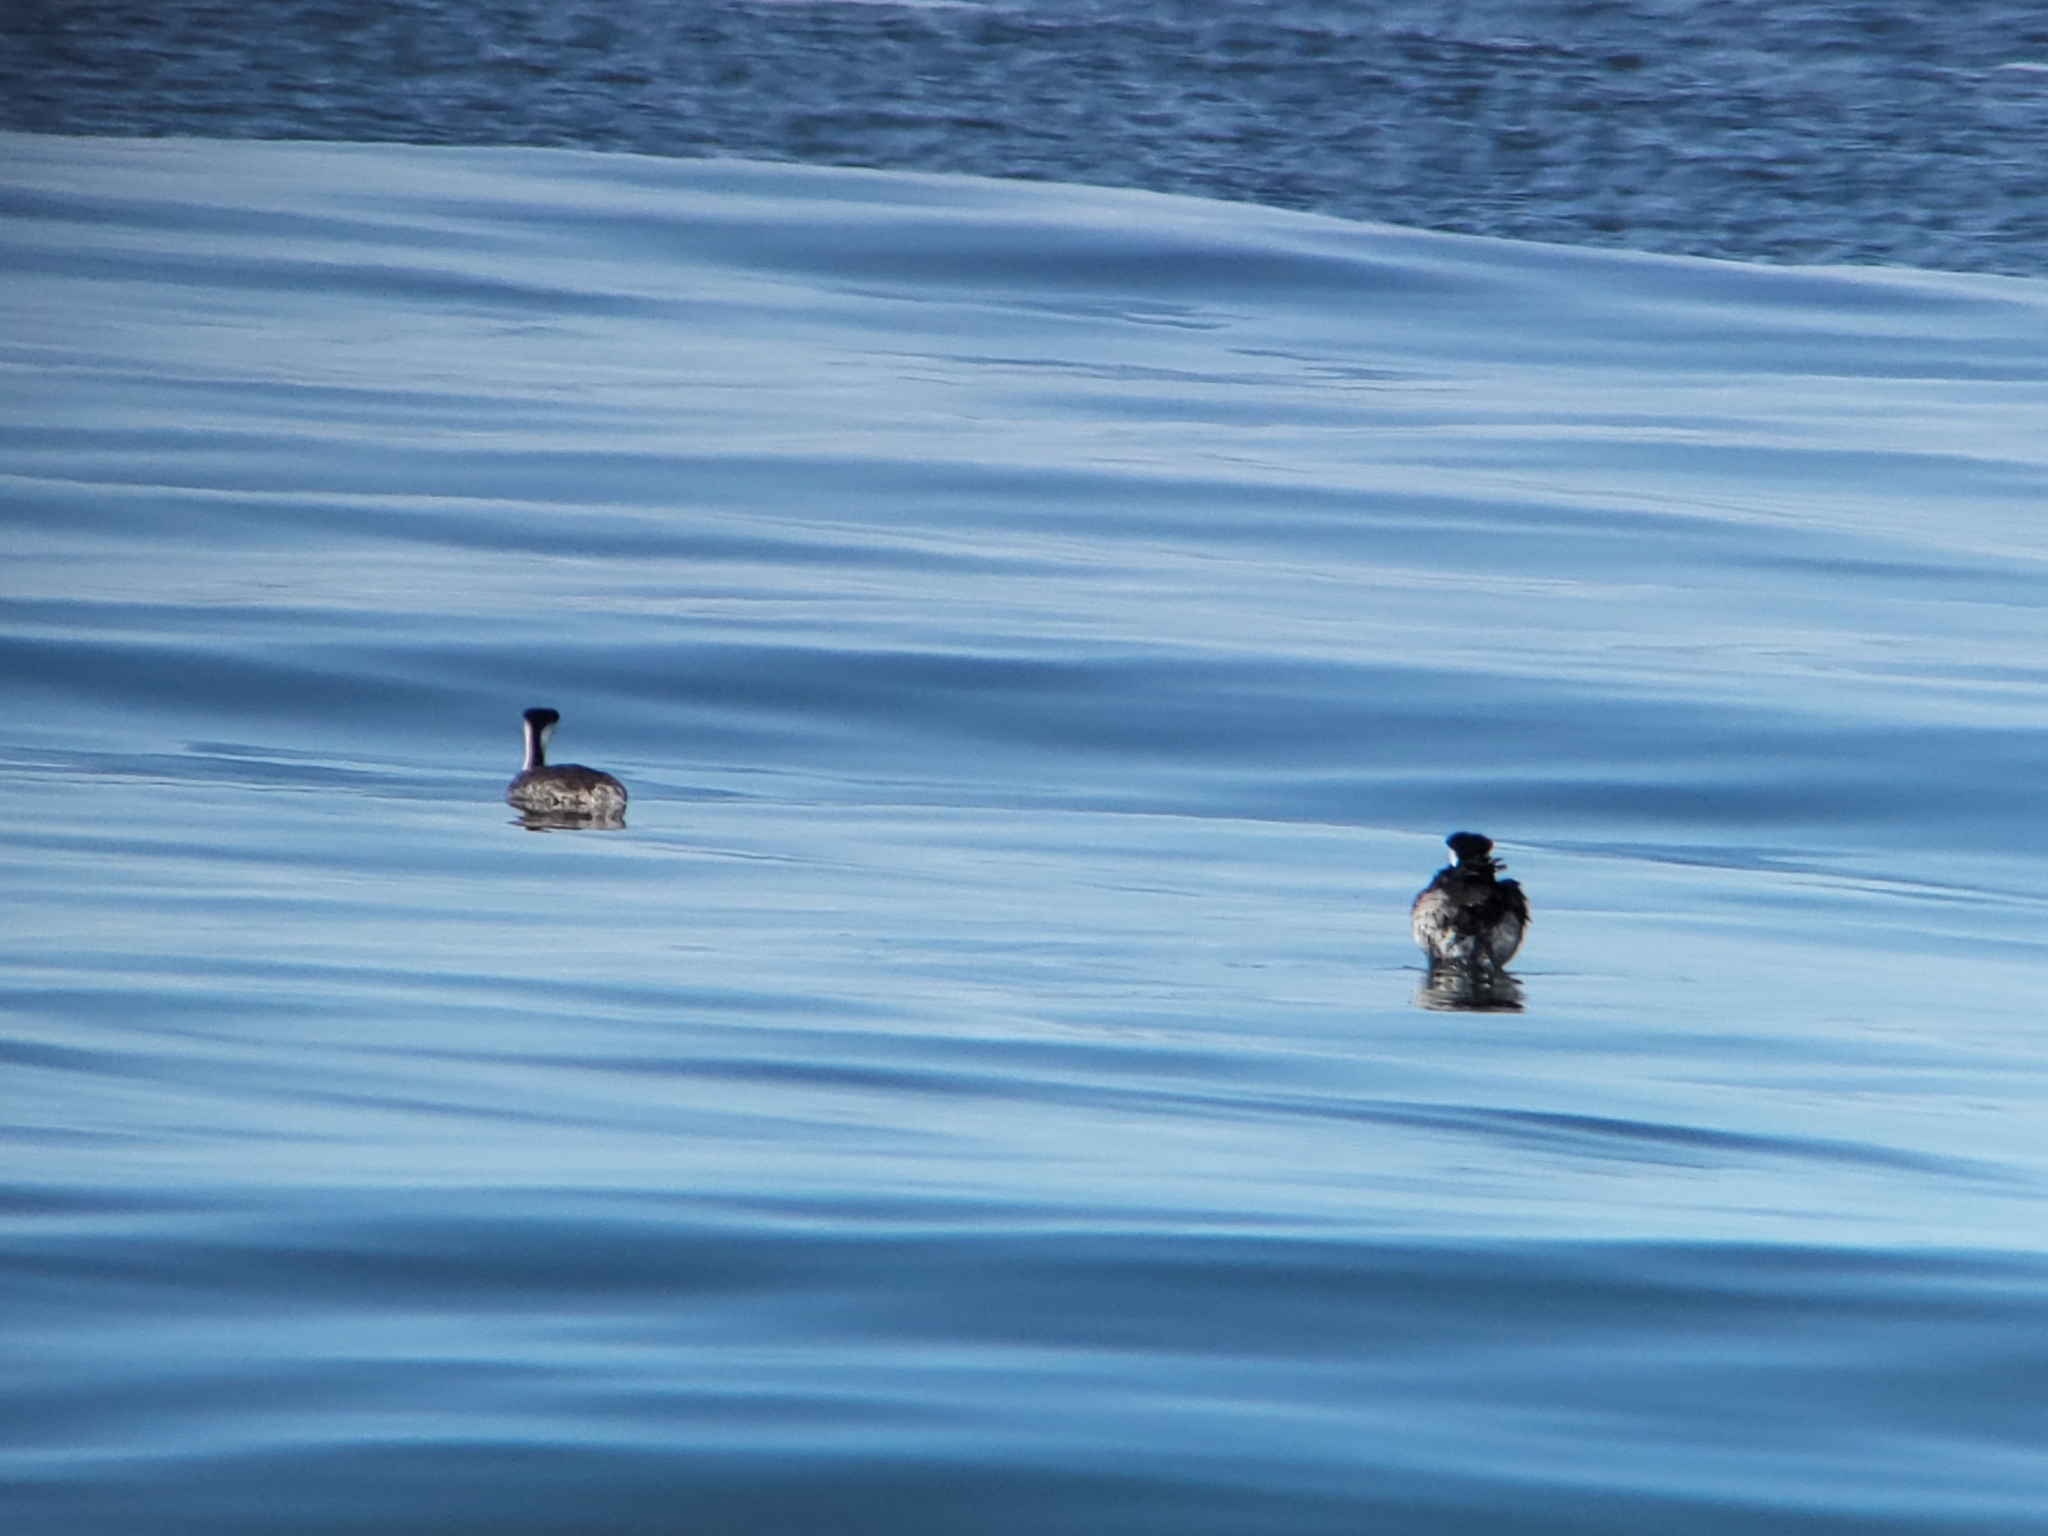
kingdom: Animalia
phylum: Chordata
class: Aves
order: Podicipediformes
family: Podicipedidae
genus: Aechmophorus
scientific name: Aechmophorus clarkii
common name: Clark's grebe
